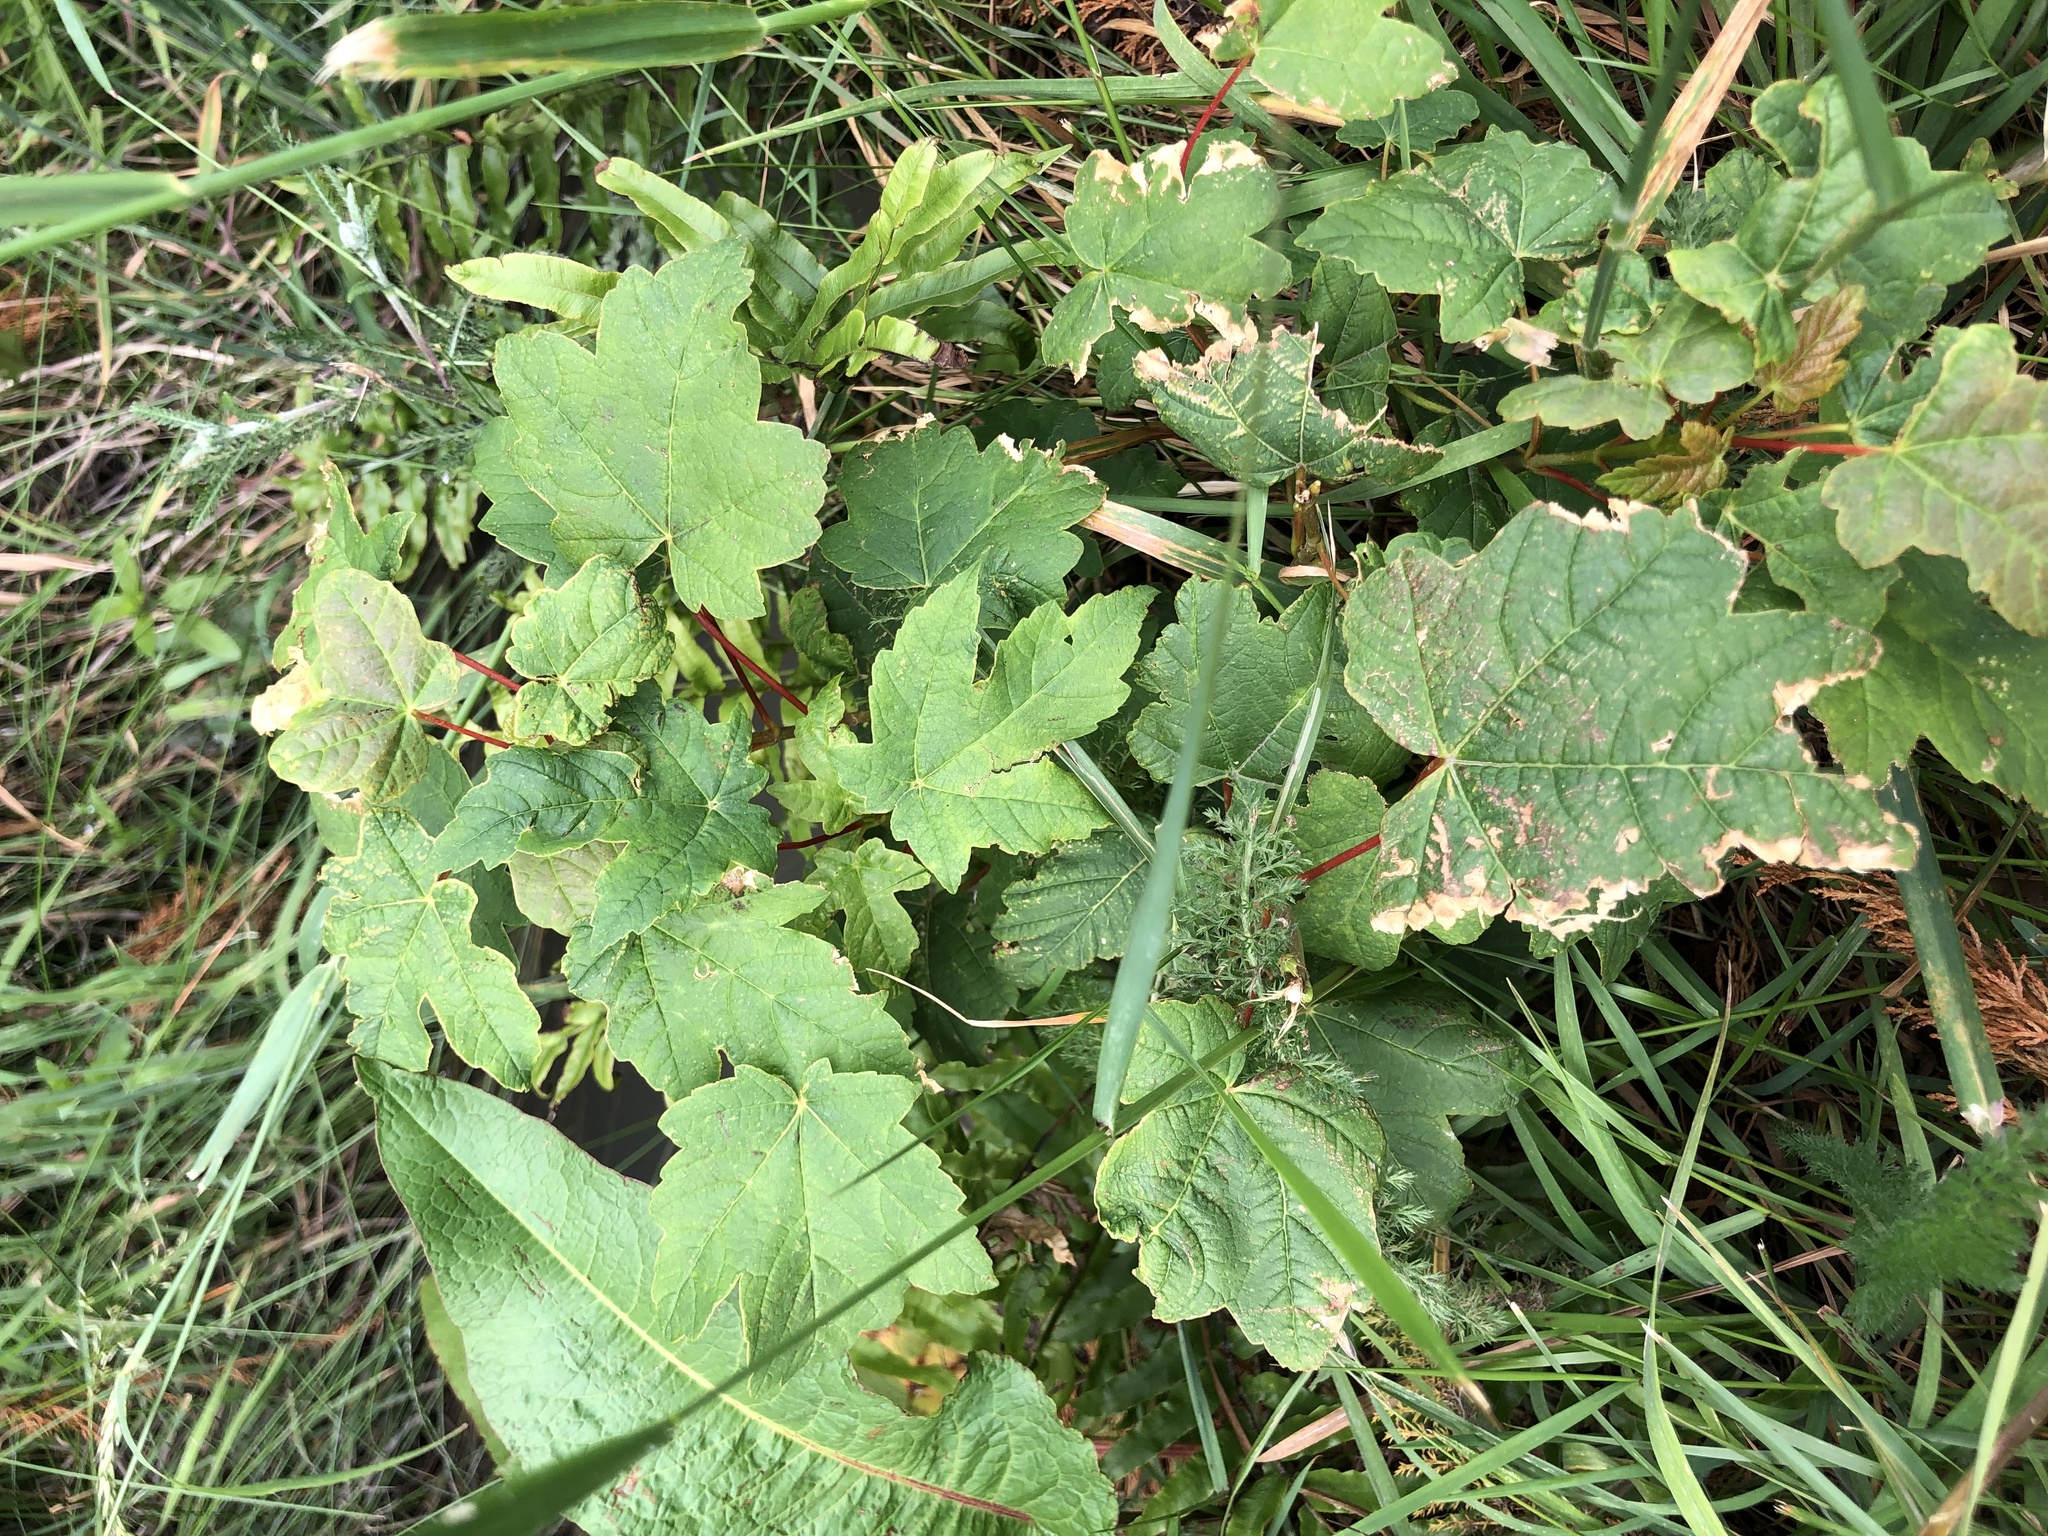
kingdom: Plantae
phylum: Tracheophyta
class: Magnoliopsida
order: Sapindales
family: Sapindaceae
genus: Acer
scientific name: Acer pseudoplatanus
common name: Sycamore
